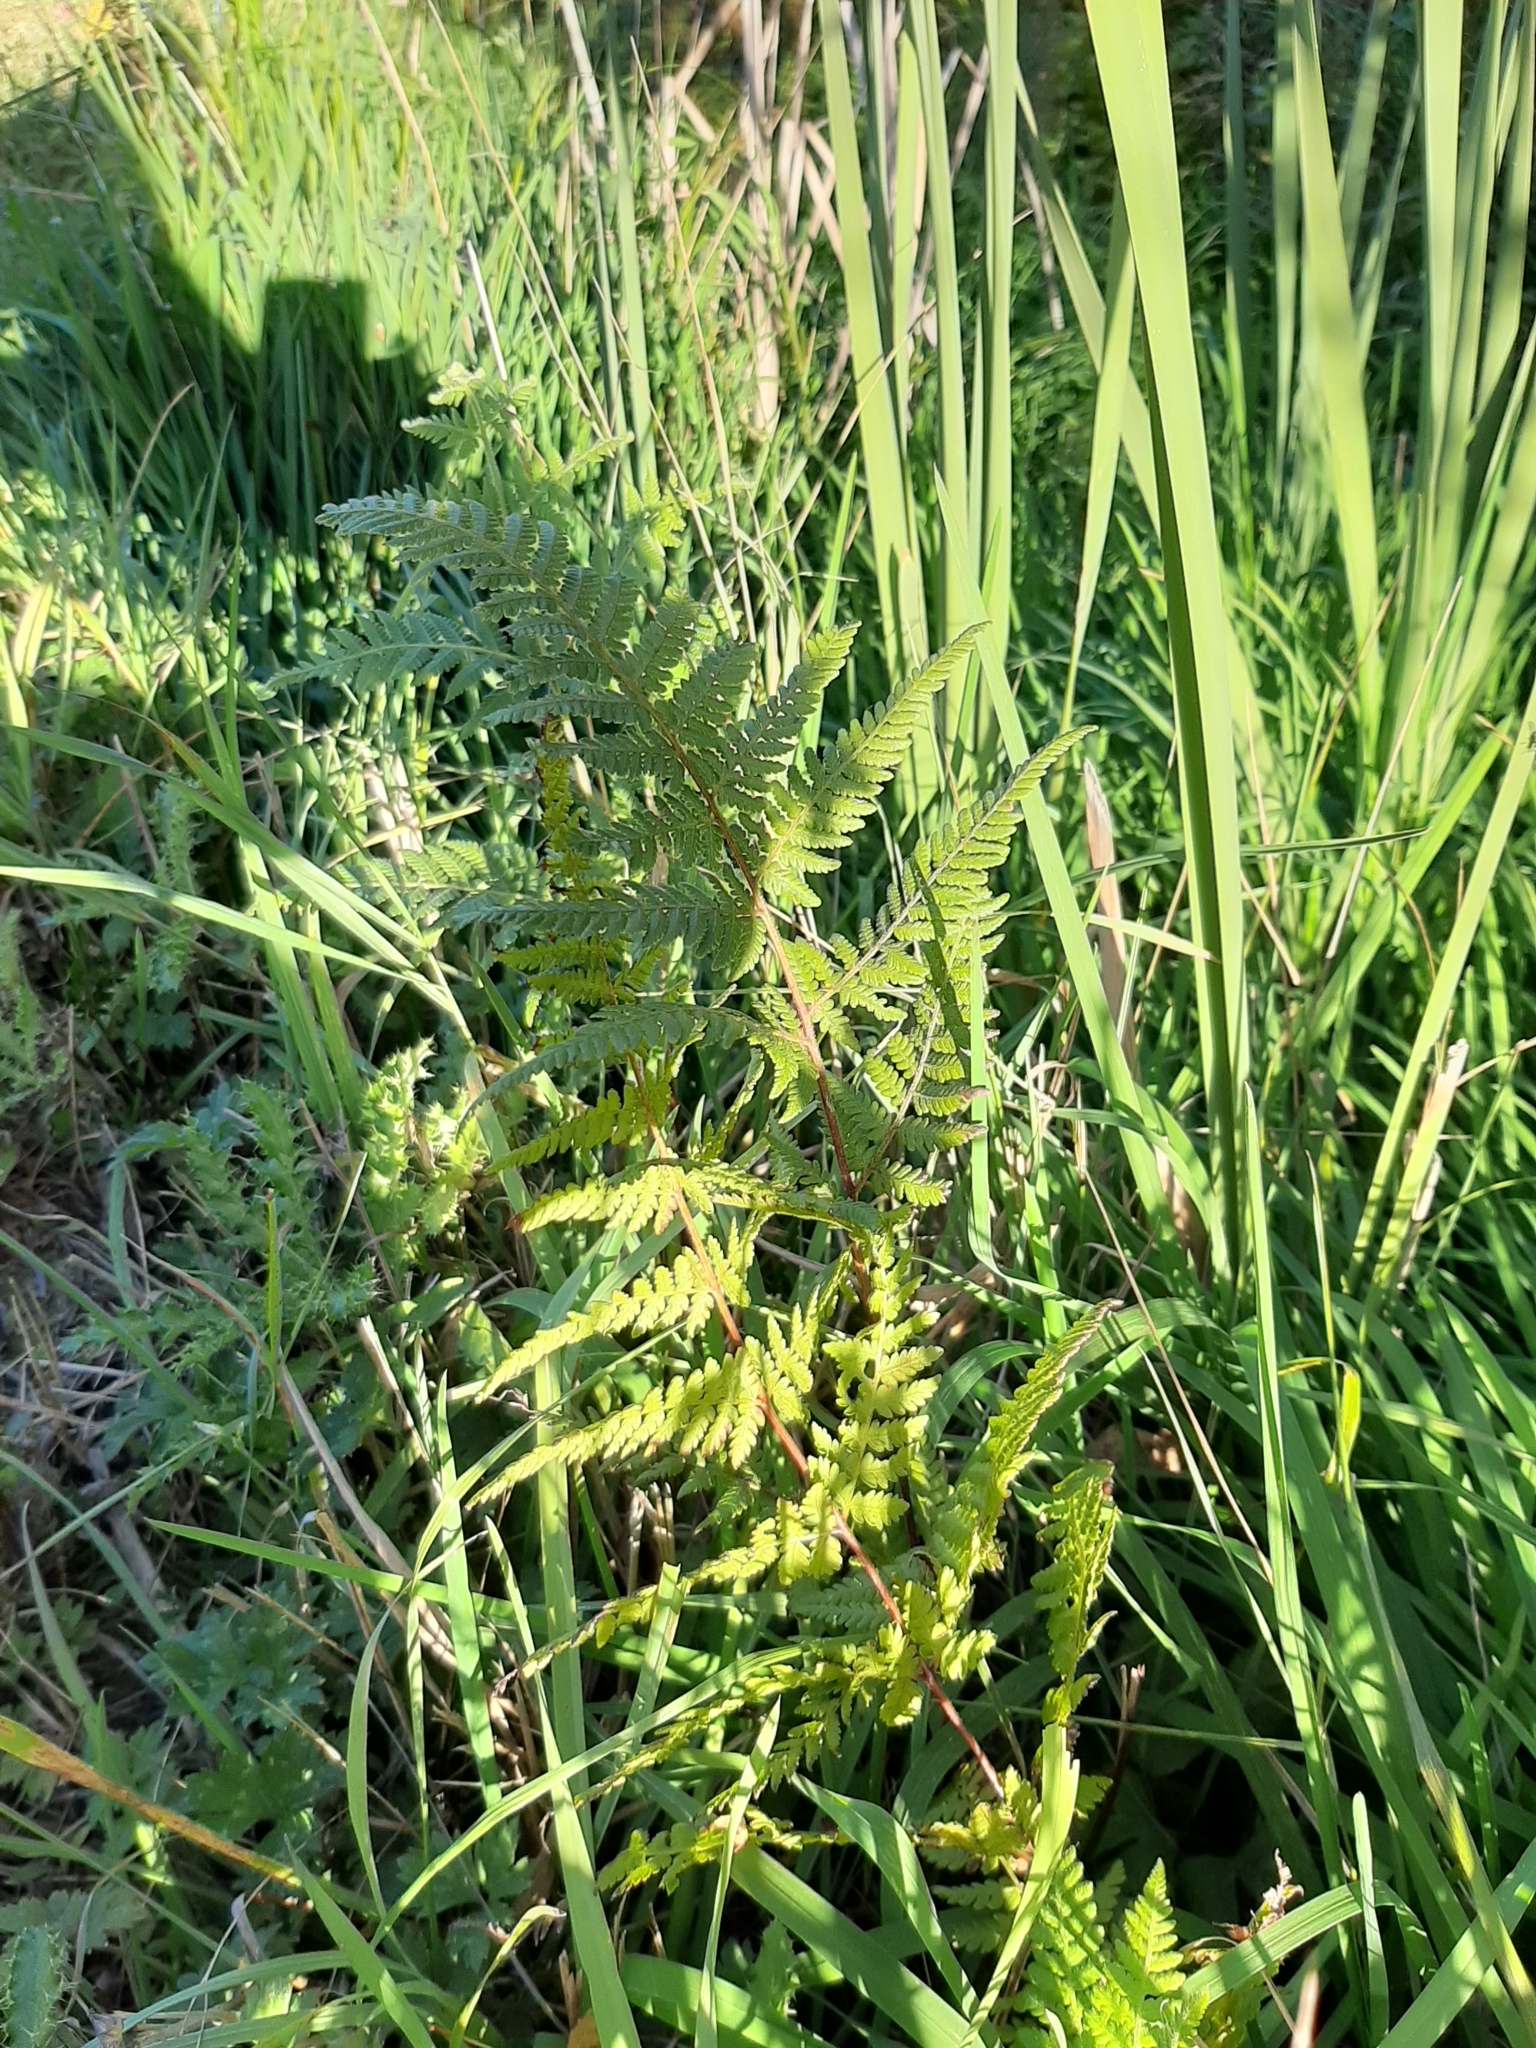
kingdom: Plantae
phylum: Tracheophyta
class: Polypodiopsida
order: Polypodiales
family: Dennstaedtiaceae
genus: Hypolepis
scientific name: Hypolepis ambigua
